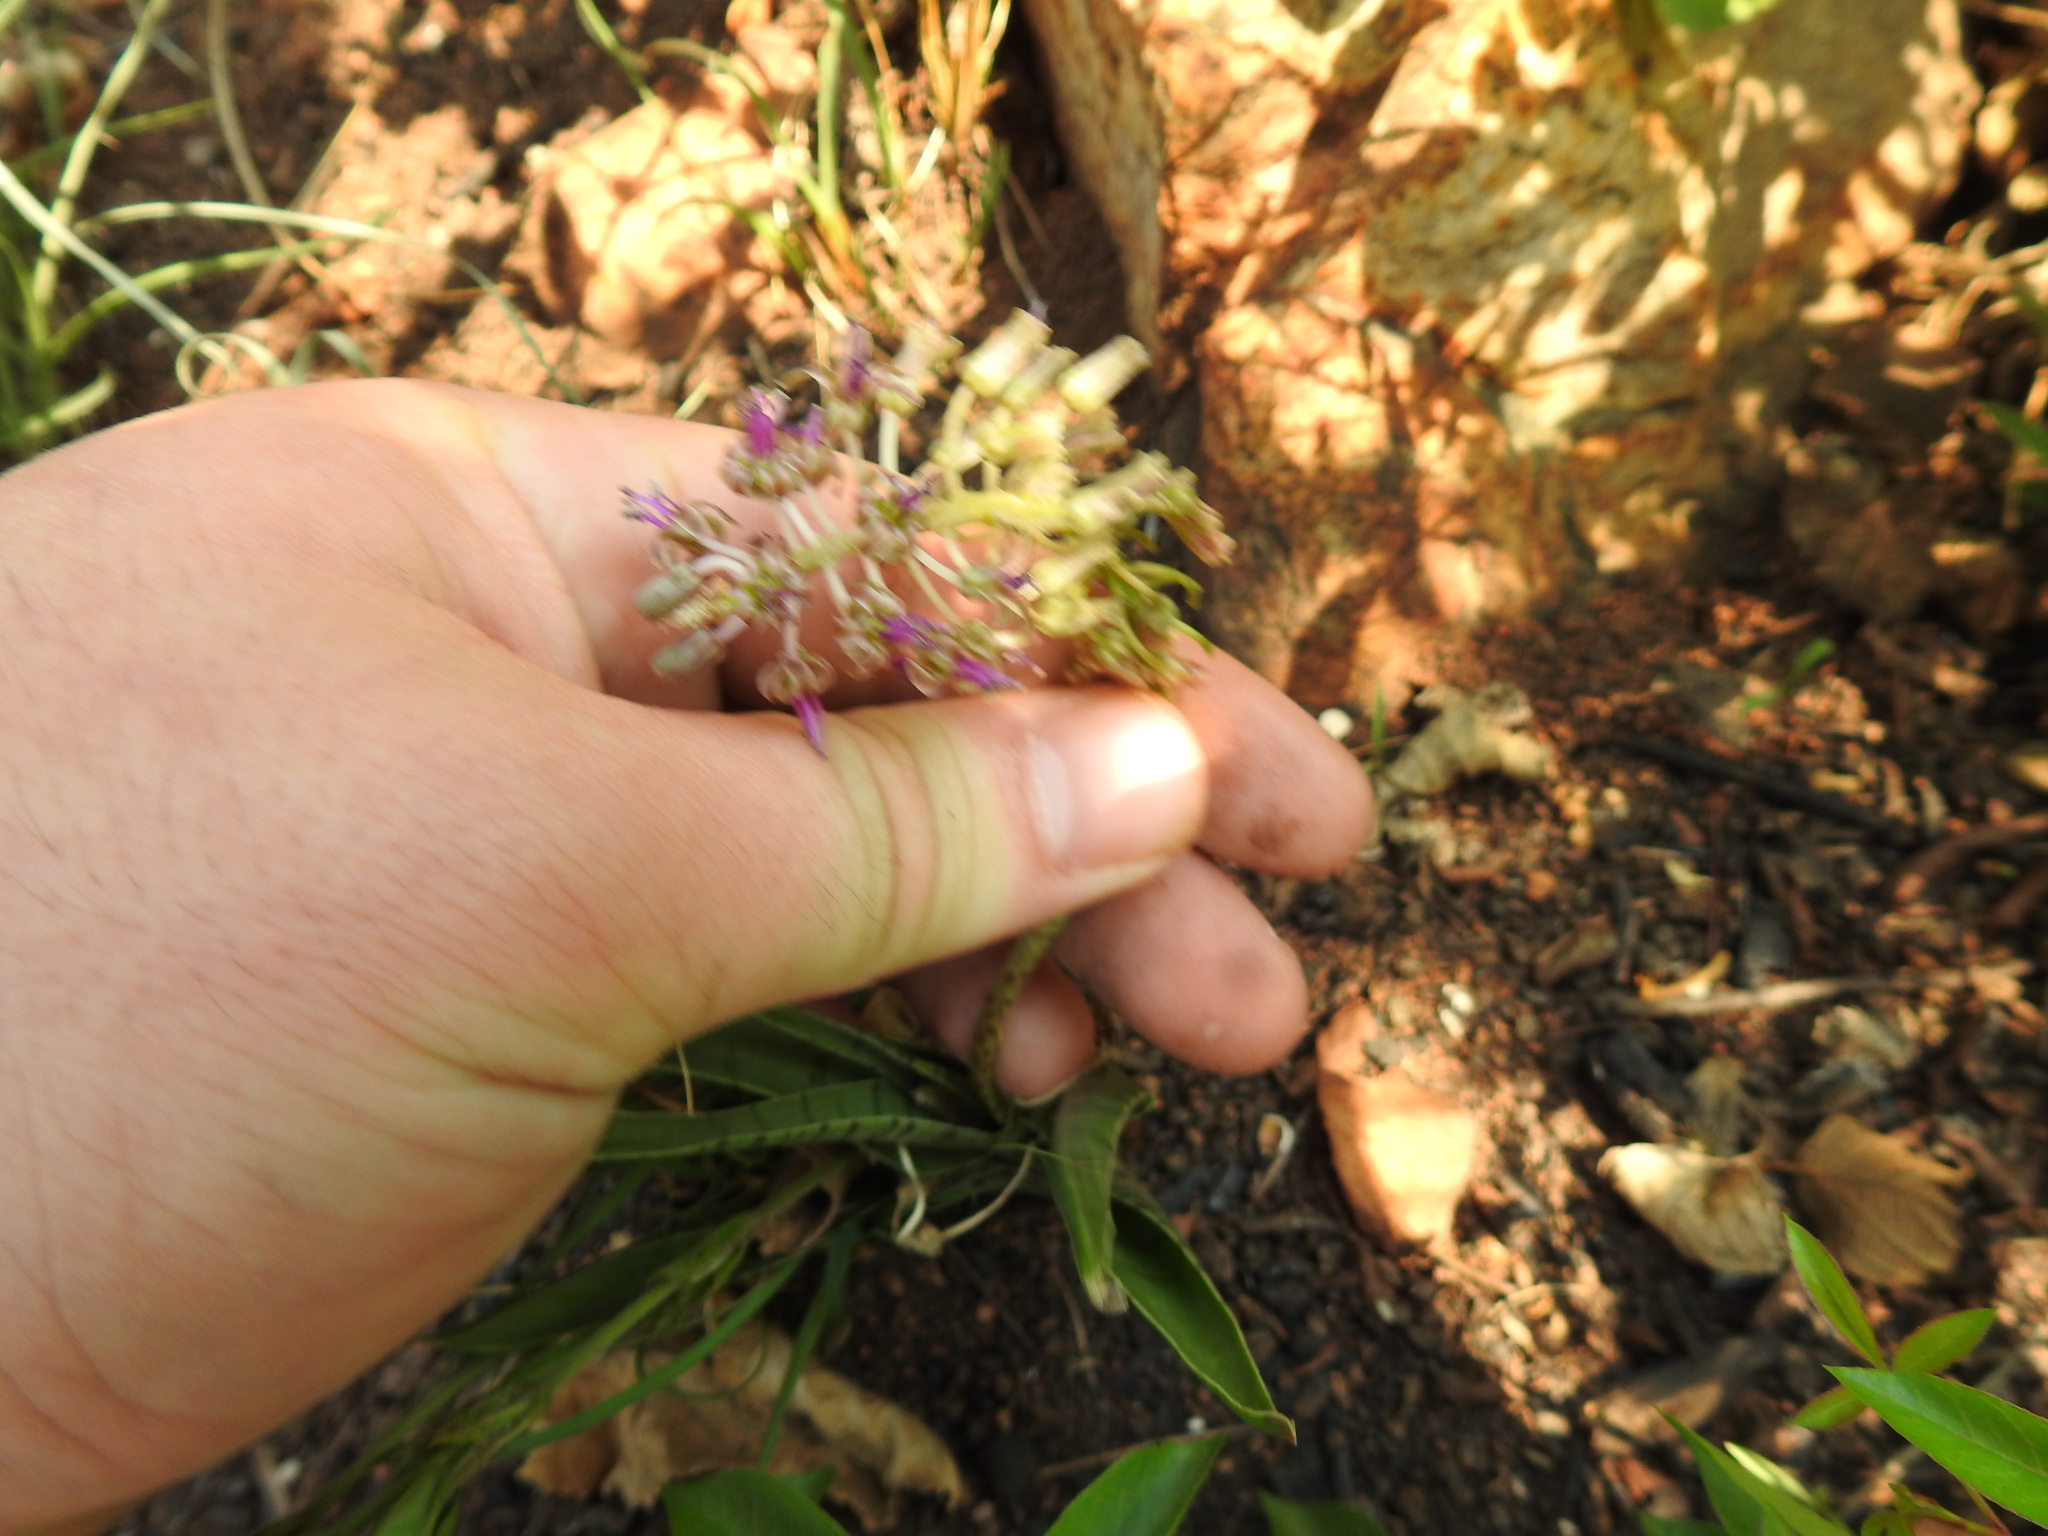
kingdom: Plantae
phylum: Tracheophyta
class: Liliopsida
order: Asparagales
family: Asparagaceae
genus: Ledebouria
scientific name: Ledebouria luteola
